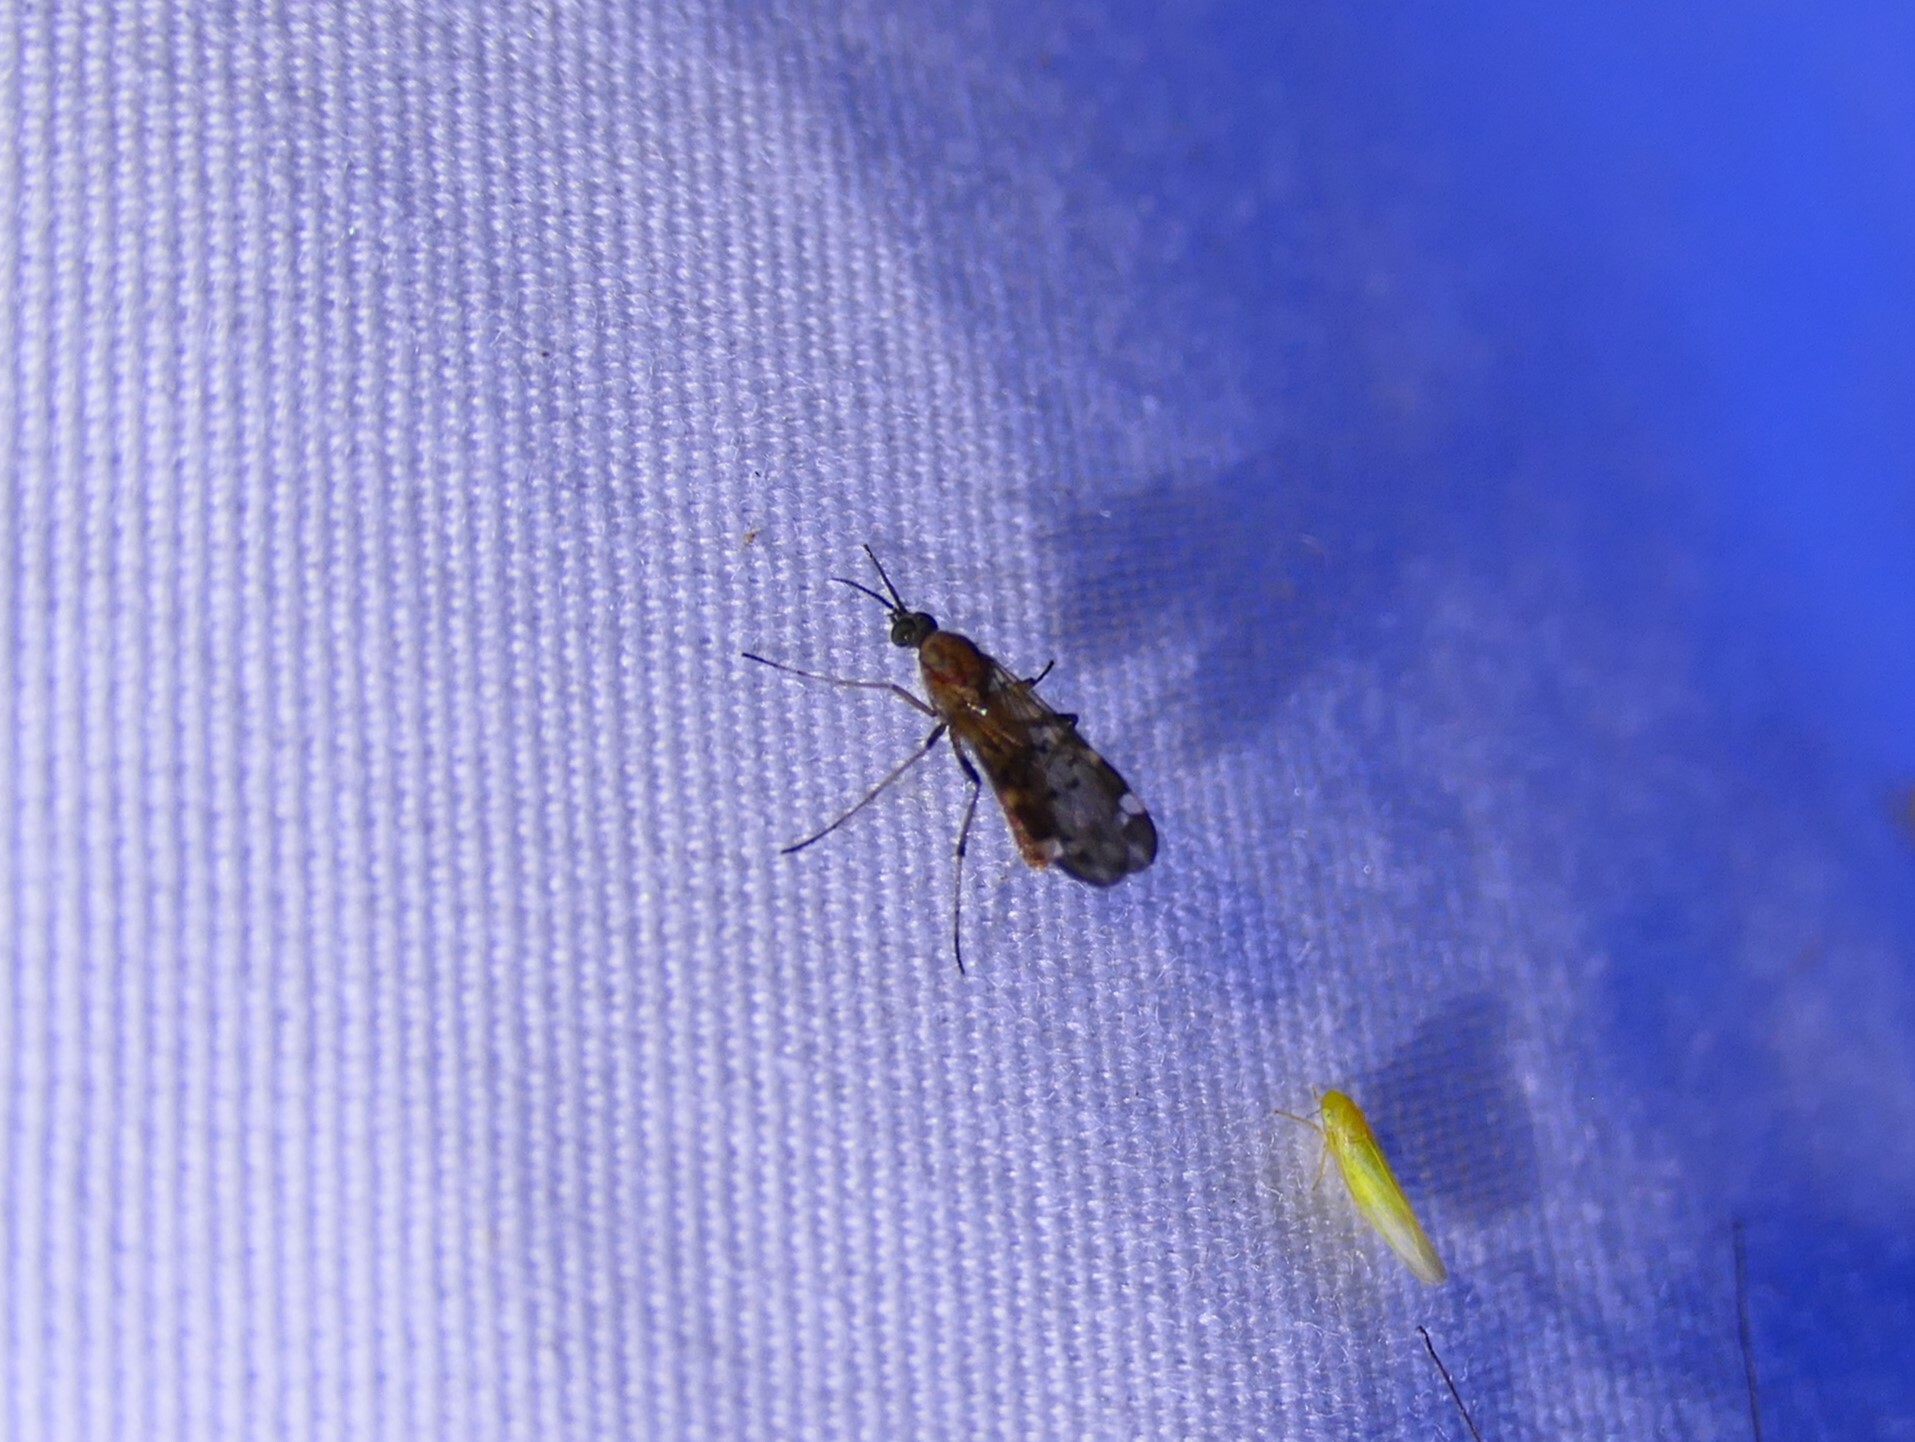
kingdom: Animalia
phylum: Arthropoda
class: Insecta
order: Diptera
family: Anisopodidae
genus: Sylvicola
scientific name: Sylvicola alternata
